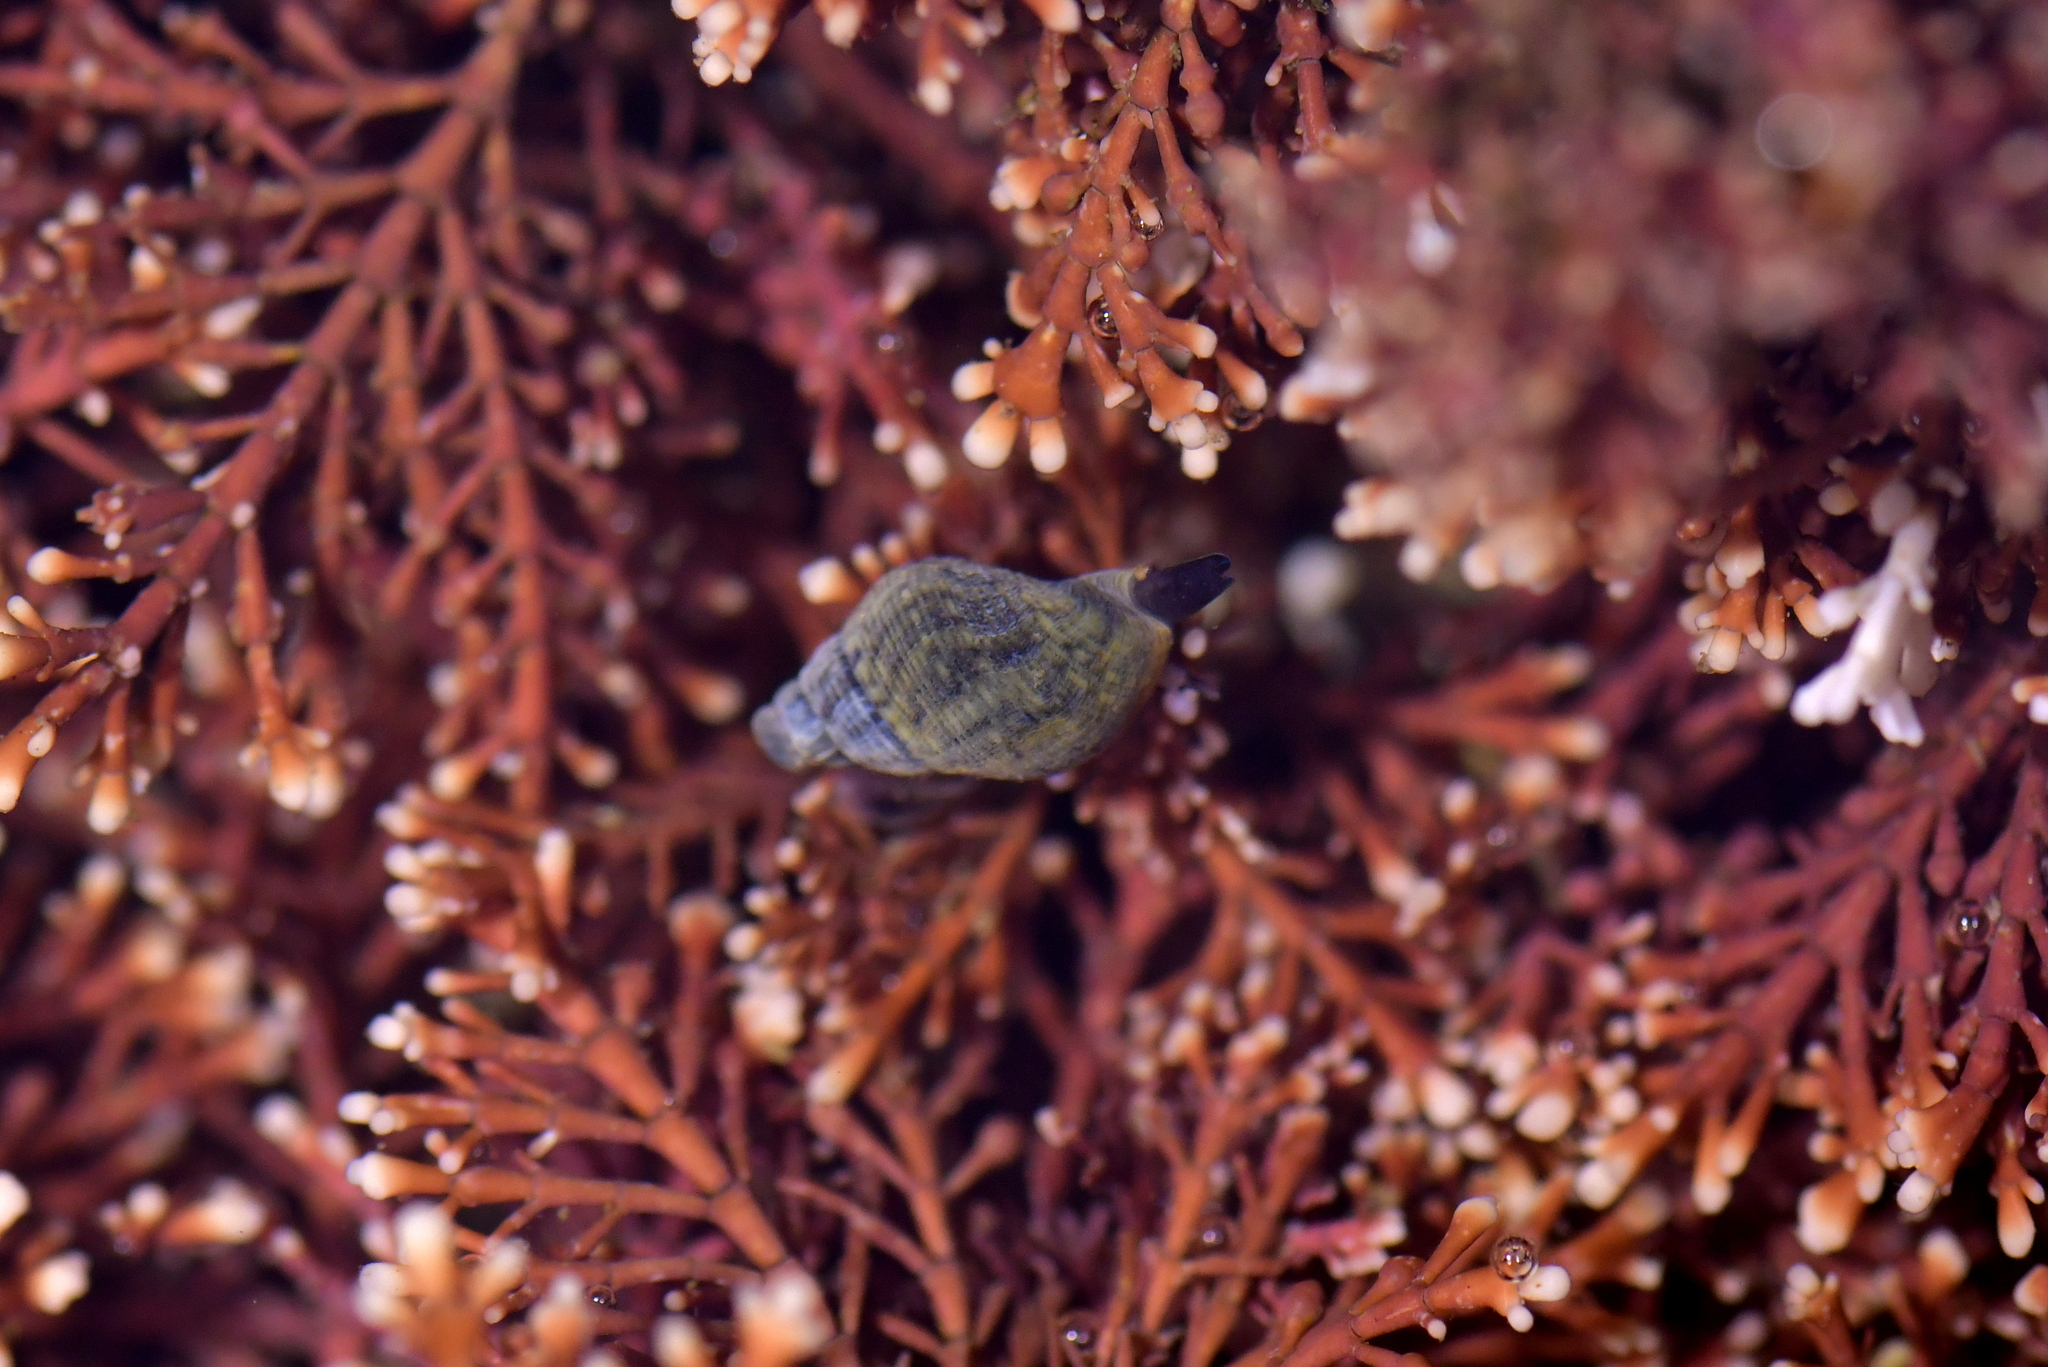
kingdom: Animalia
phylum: Mollusca
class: Gastropoda
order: Neogastropoda
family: Cominellidae
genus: Cominella
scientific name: Cominella maculosa
